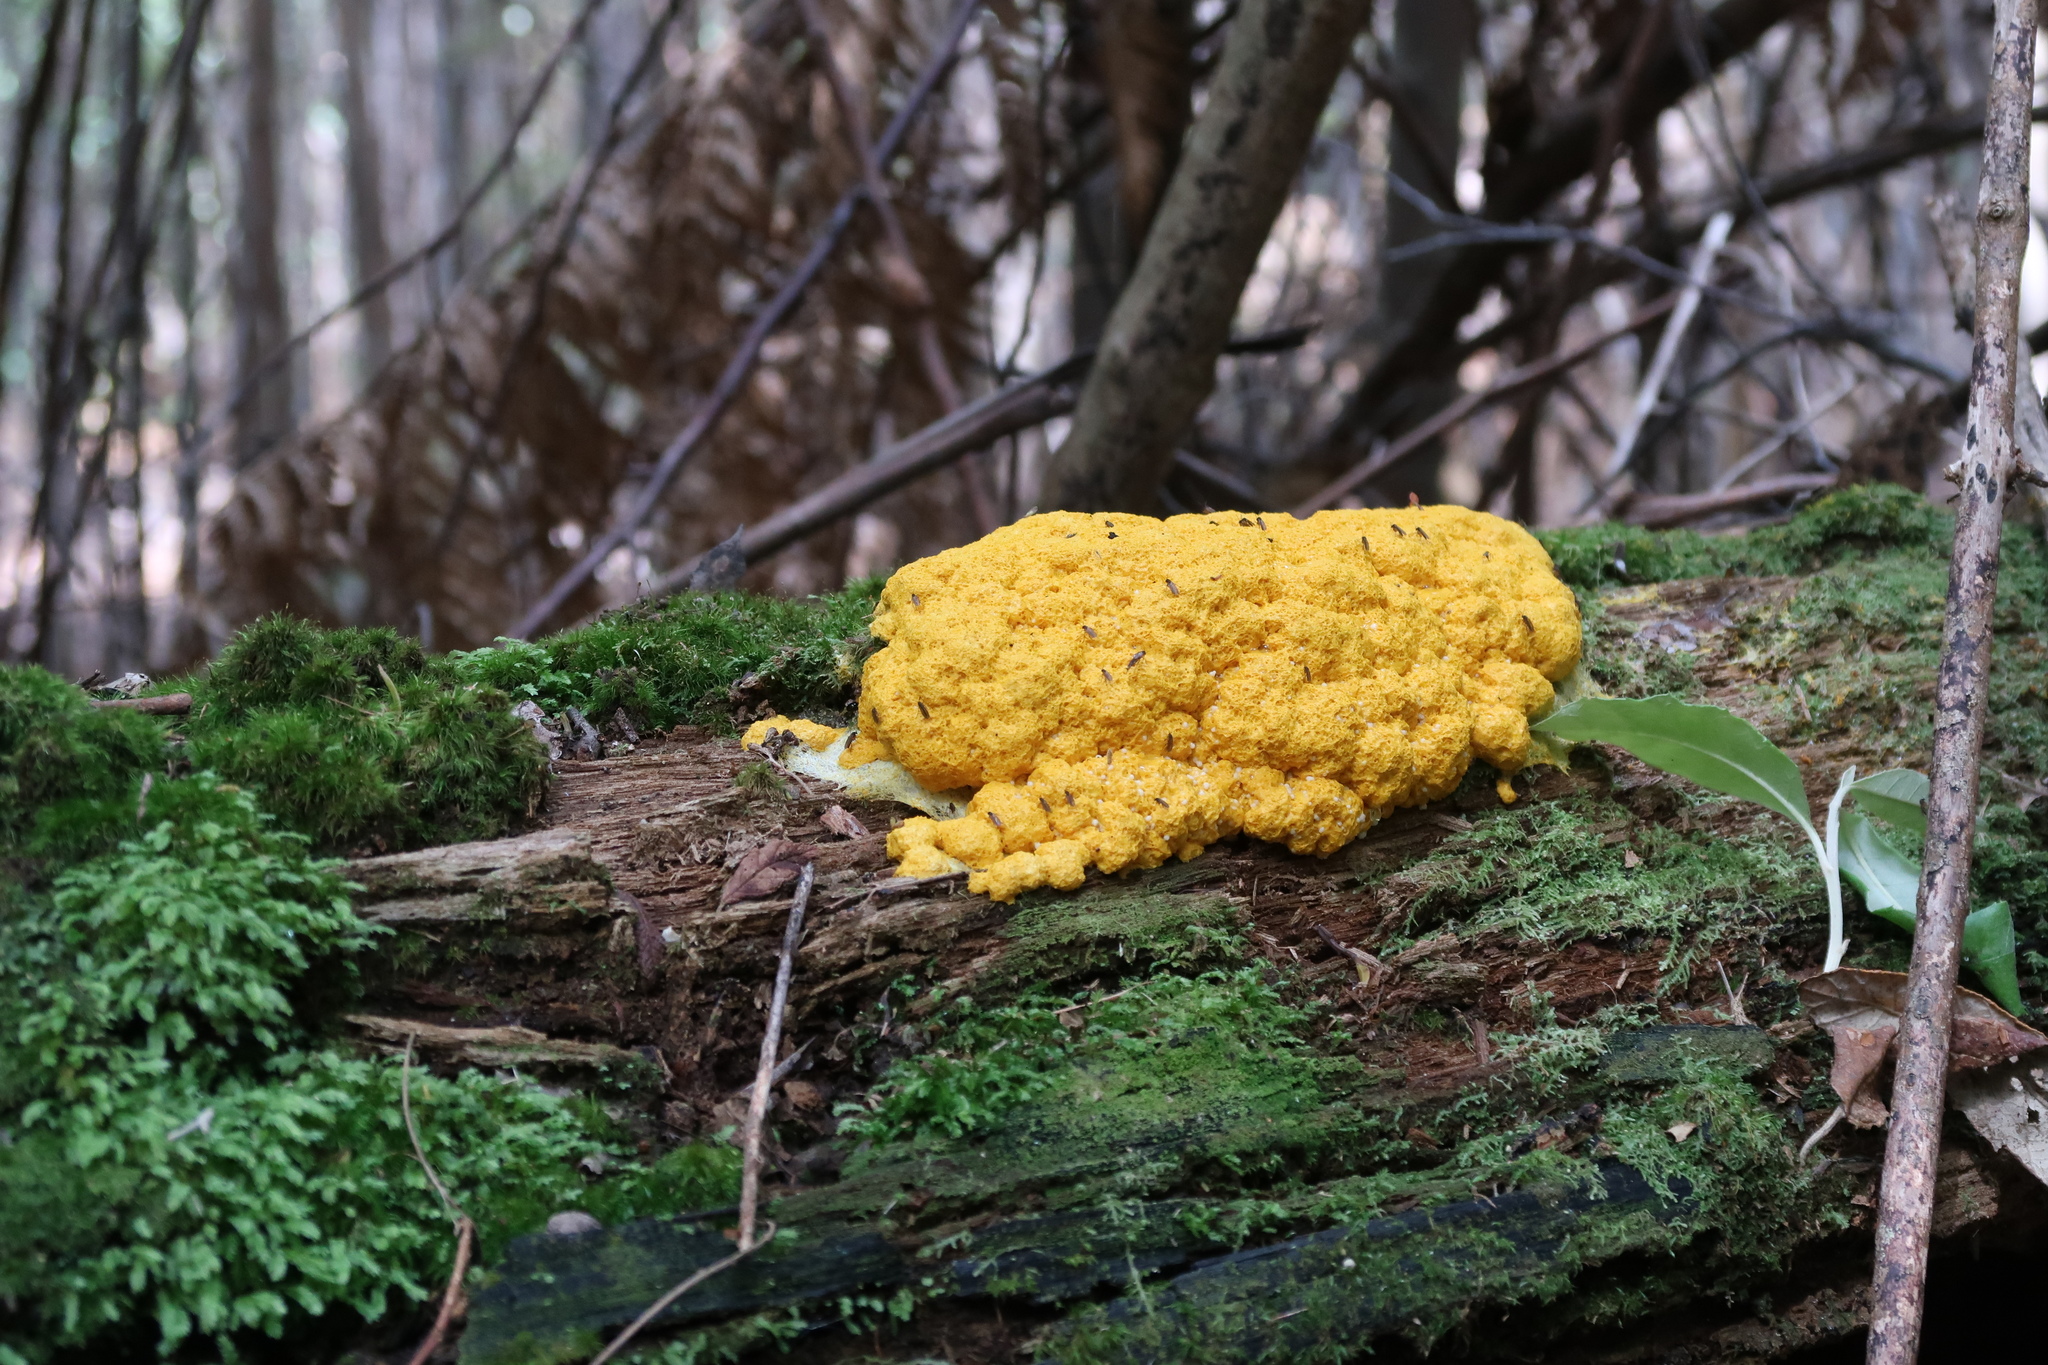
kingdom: Protozoa
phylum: Mycetozoa
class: Myxomycetes
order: Physarales
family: Physaraceae
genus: Fuligo
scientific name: Fuligo septica
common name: Dog vomit slime mold
